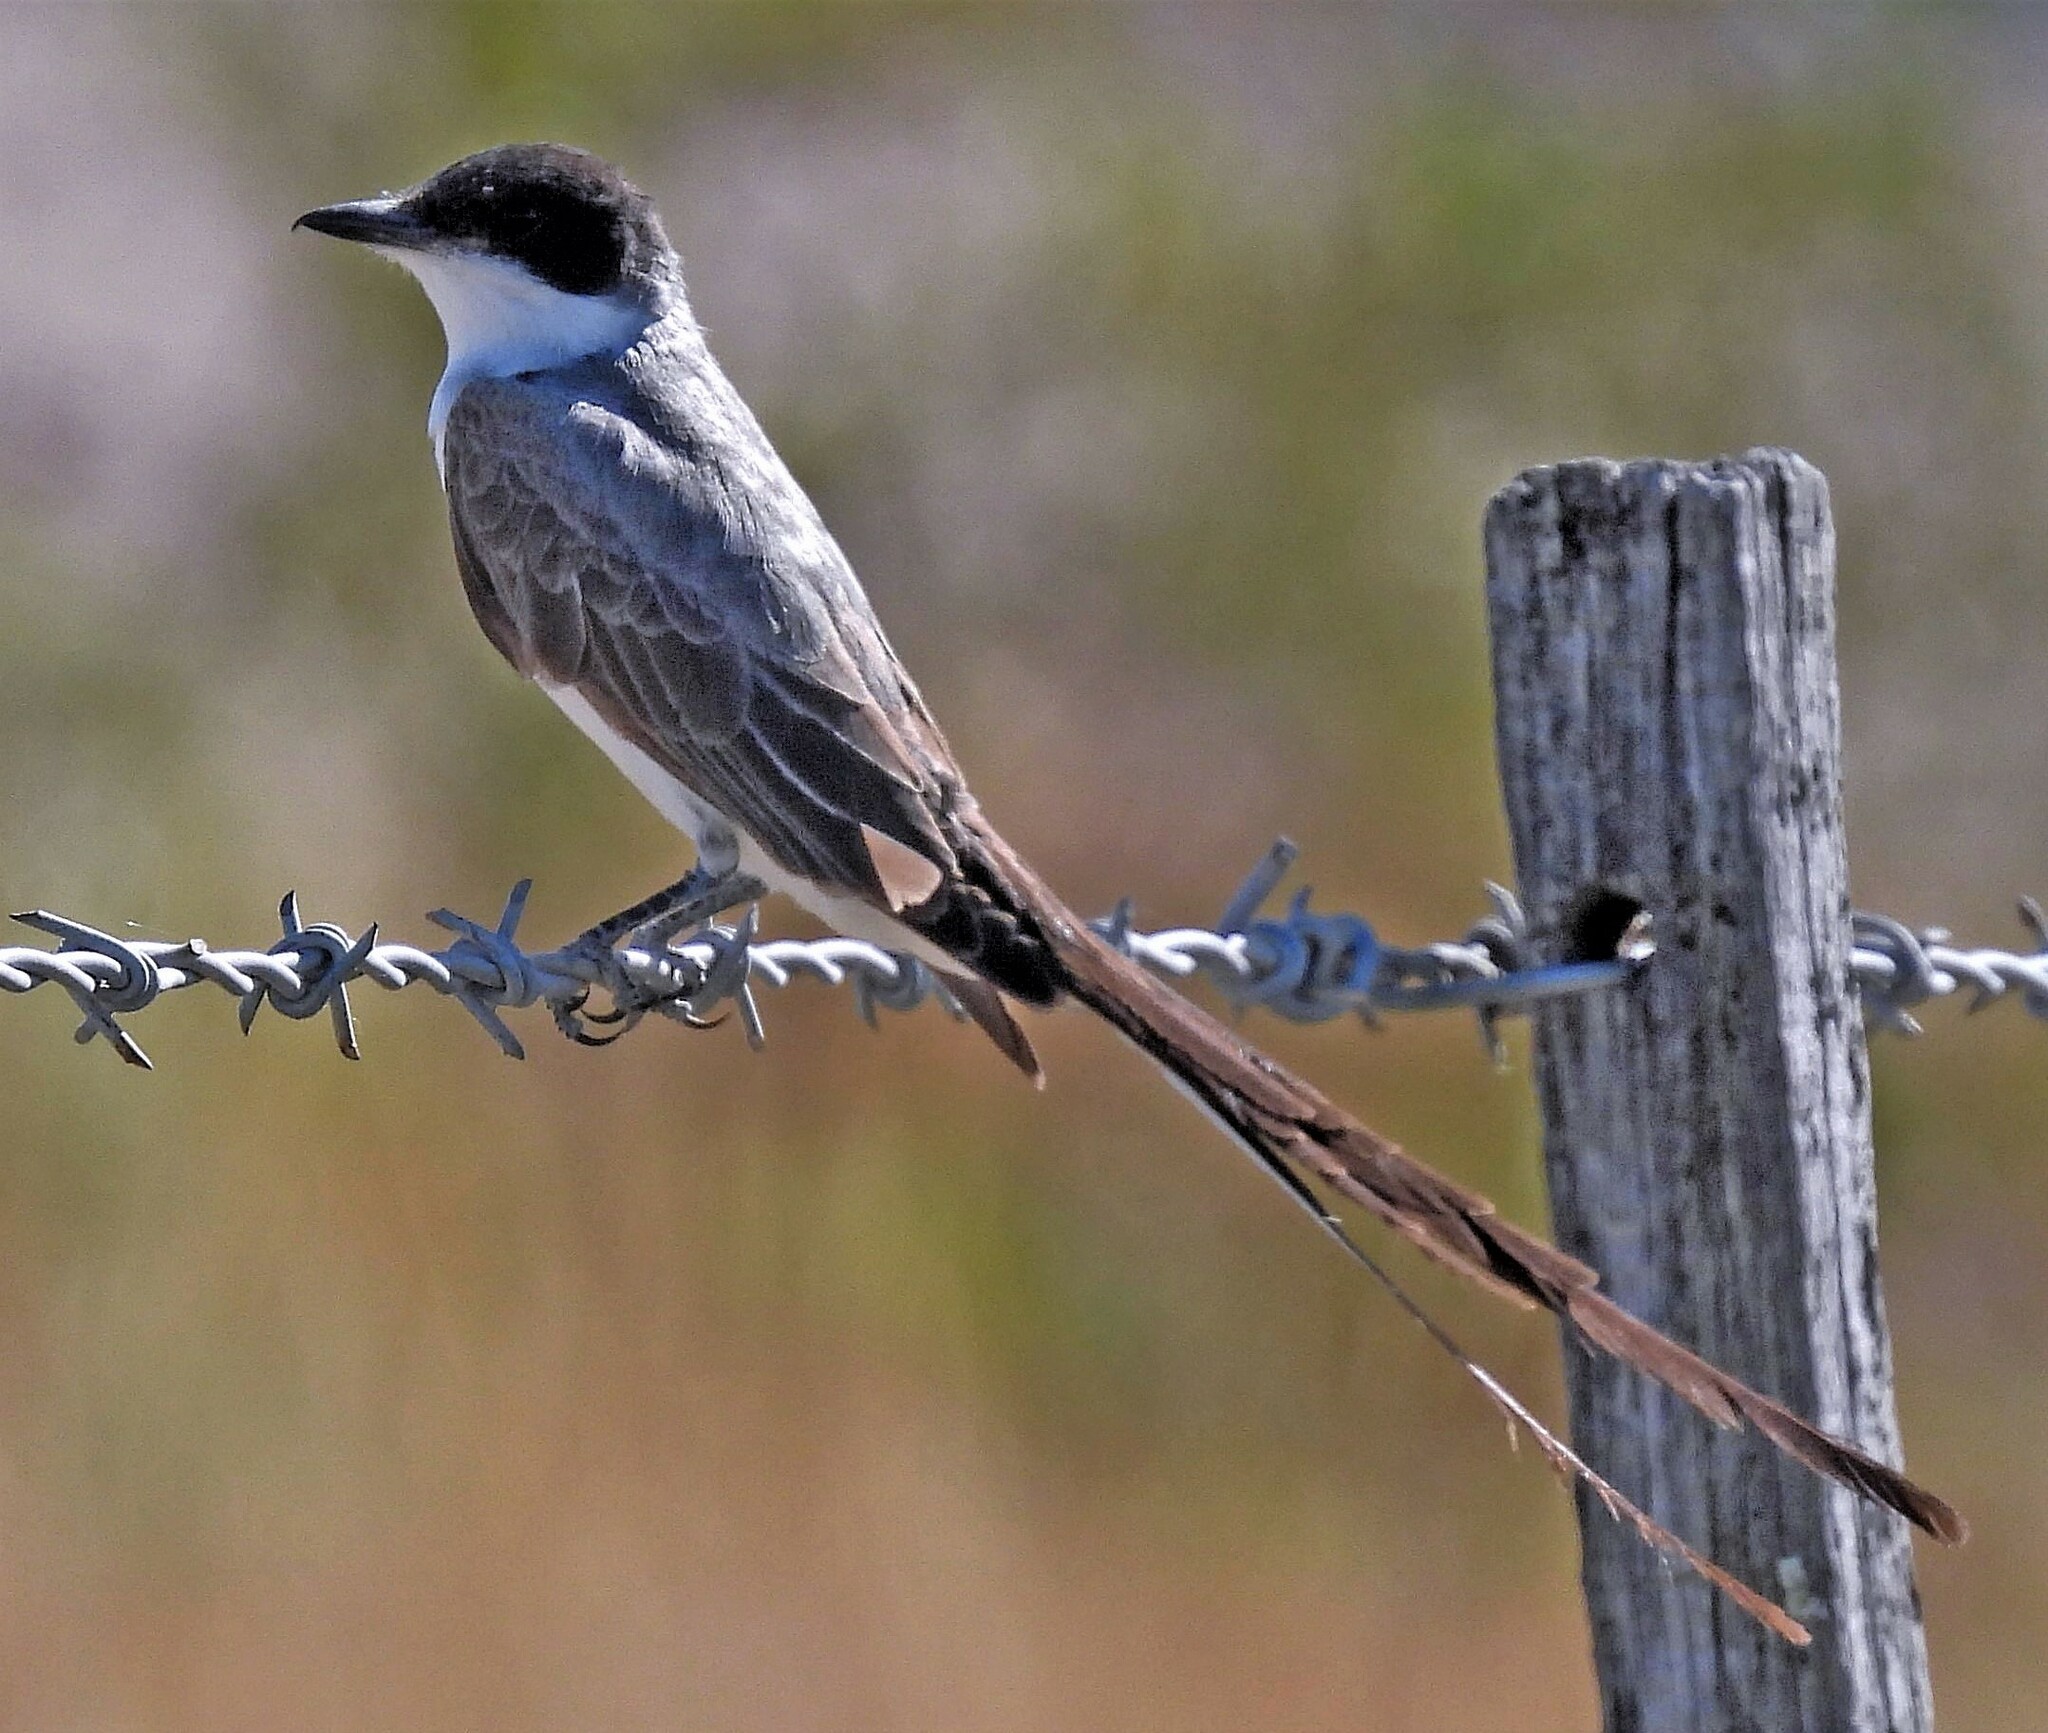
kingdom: Animalia
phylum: Chordata
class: Aves
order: Passeriformes
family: Tyrannidae
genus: Tyrannus
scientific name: Tyrannus savana
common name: Fork-tailed flycatcher
